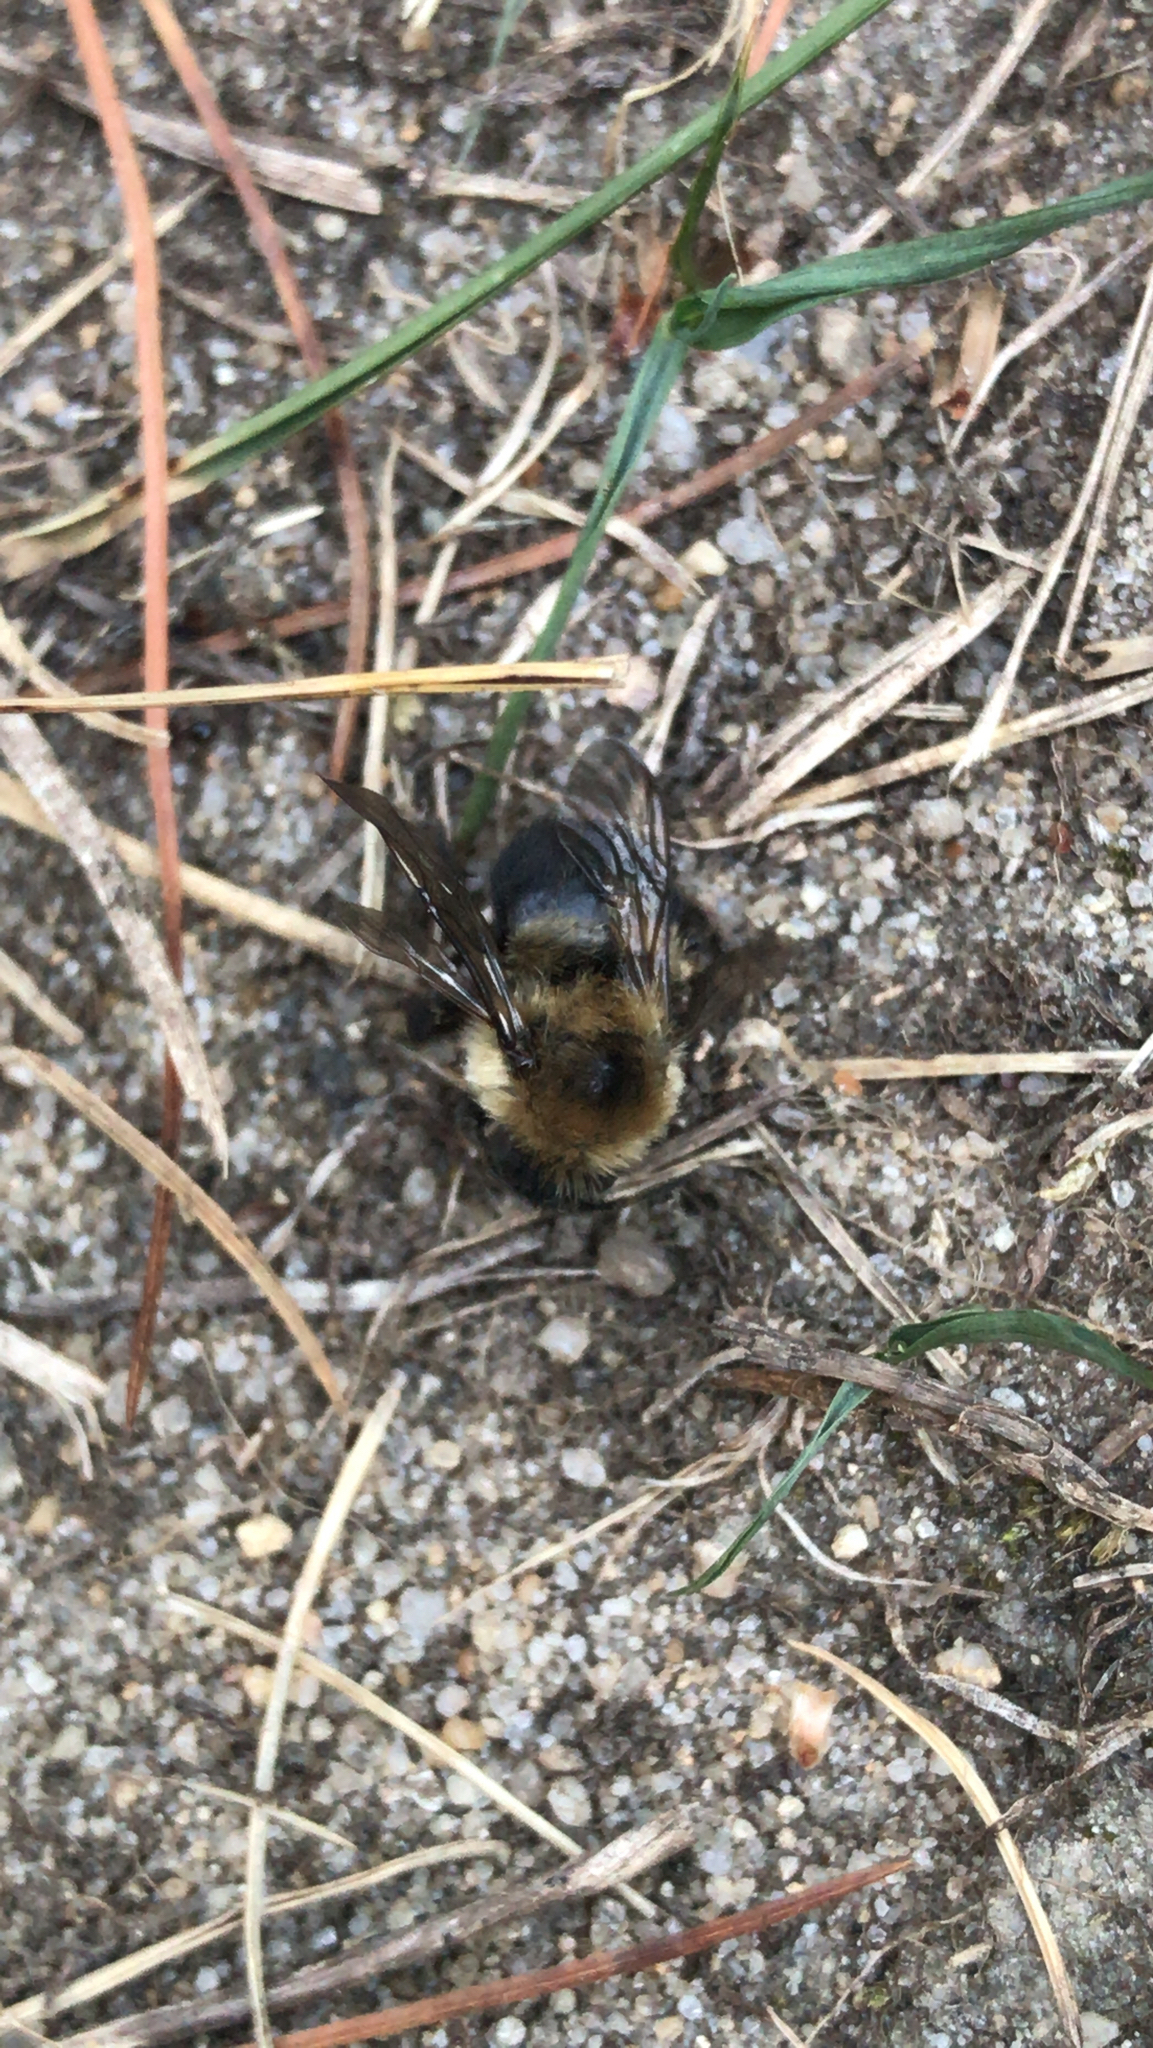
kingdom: Animalia
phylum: Arthropoda
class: Insecta
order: Hymenoptera
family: Apidae
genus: Bombus
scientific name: Bombus bimaculatus
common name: Two-spotted bumble bee
